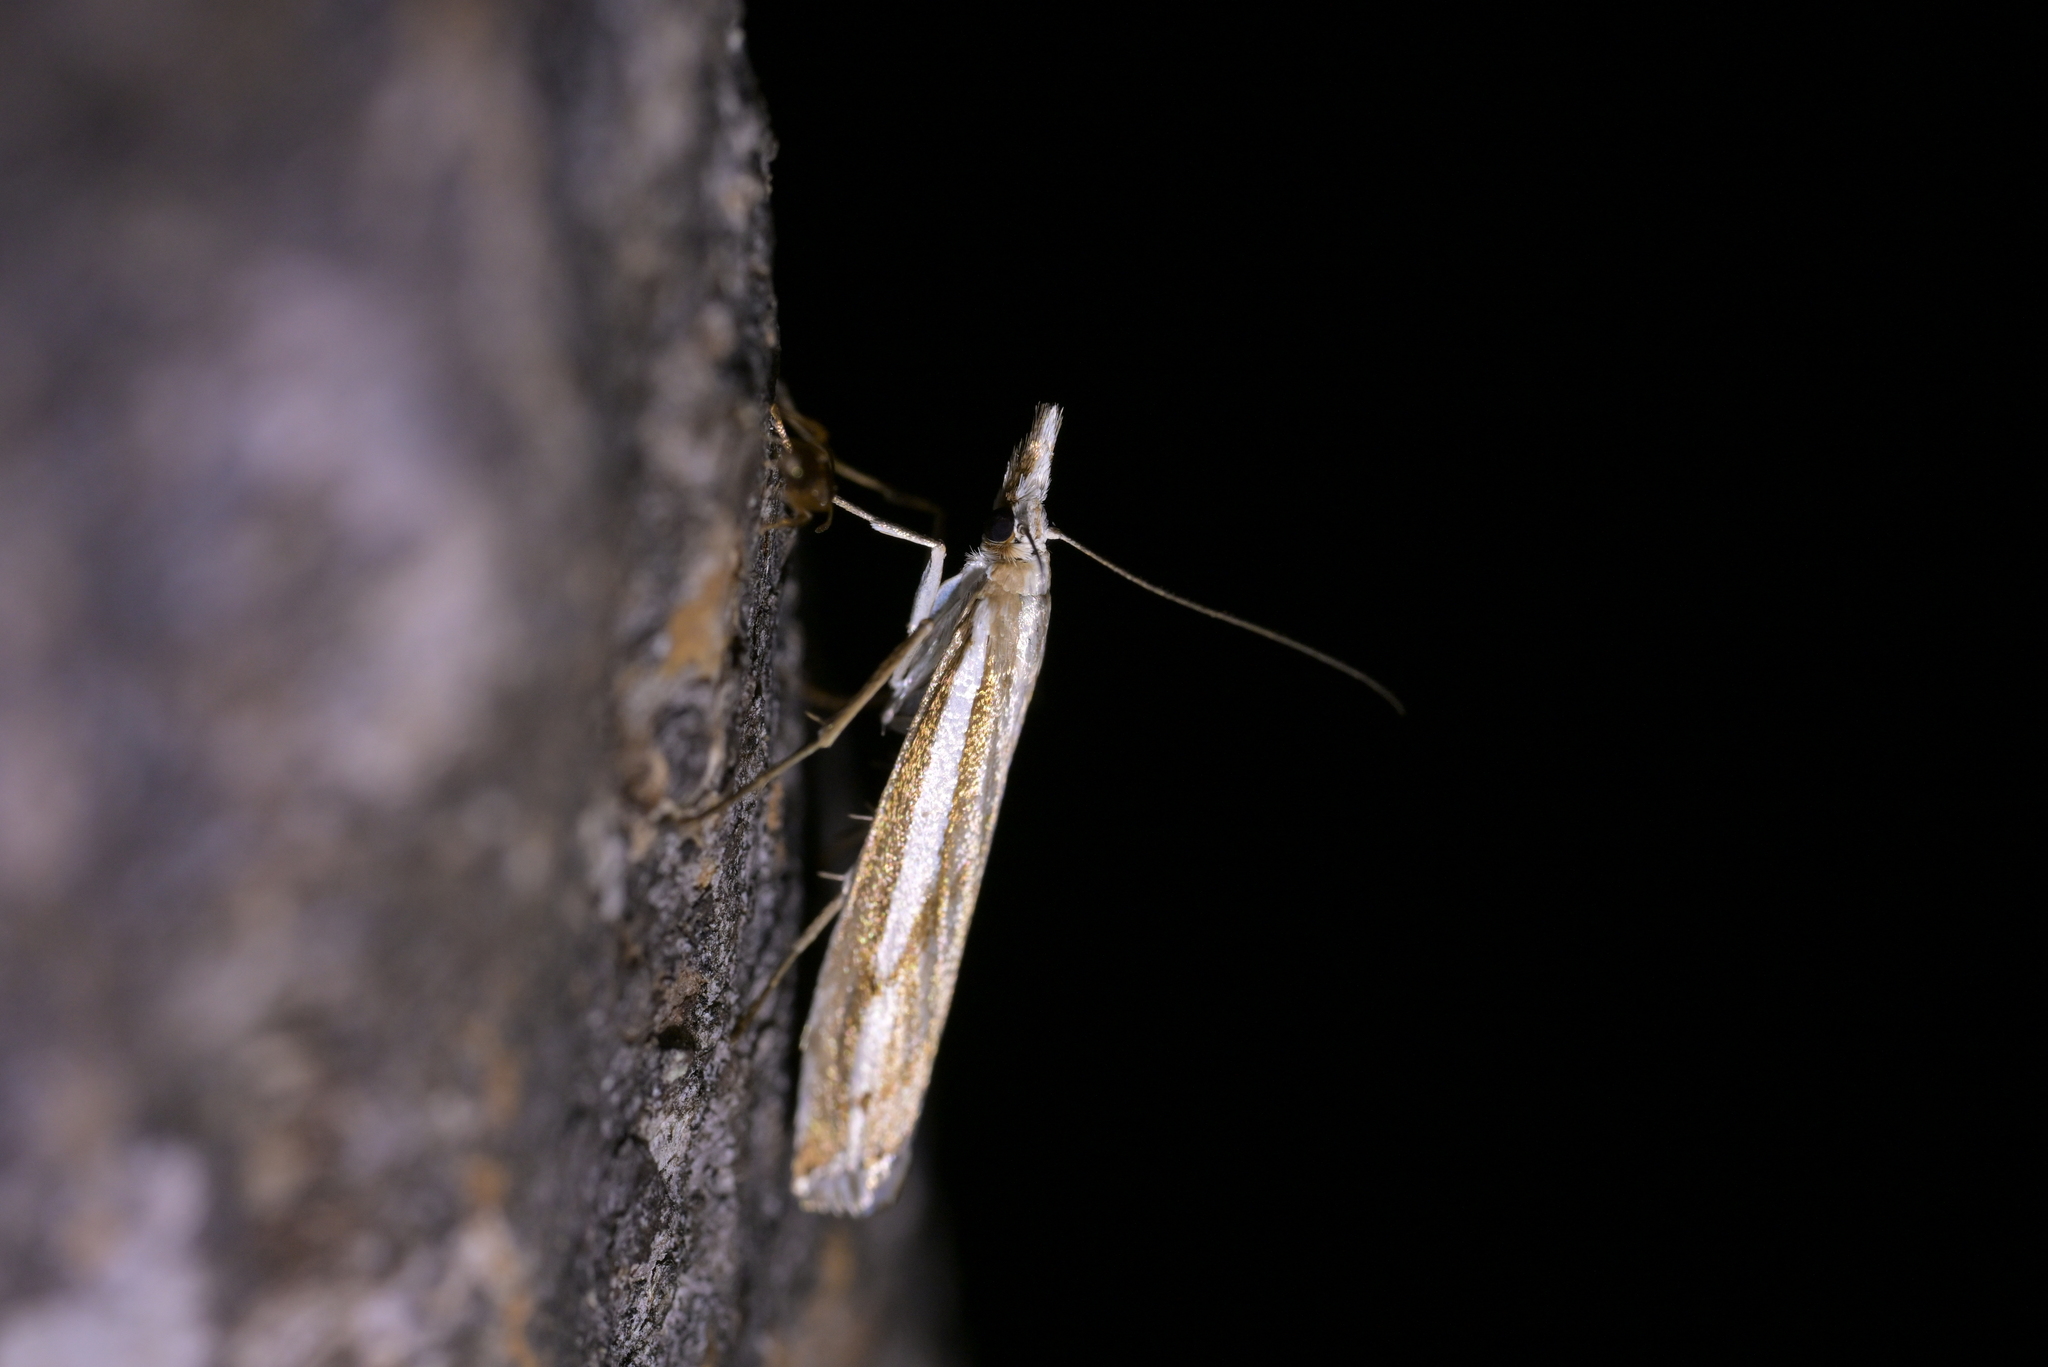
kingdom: Animalia
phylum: Arthropoda
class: Insecta
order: Lepidoptera
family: Crambidae
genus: Orocrambus
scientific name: Orocrambus vittellus
